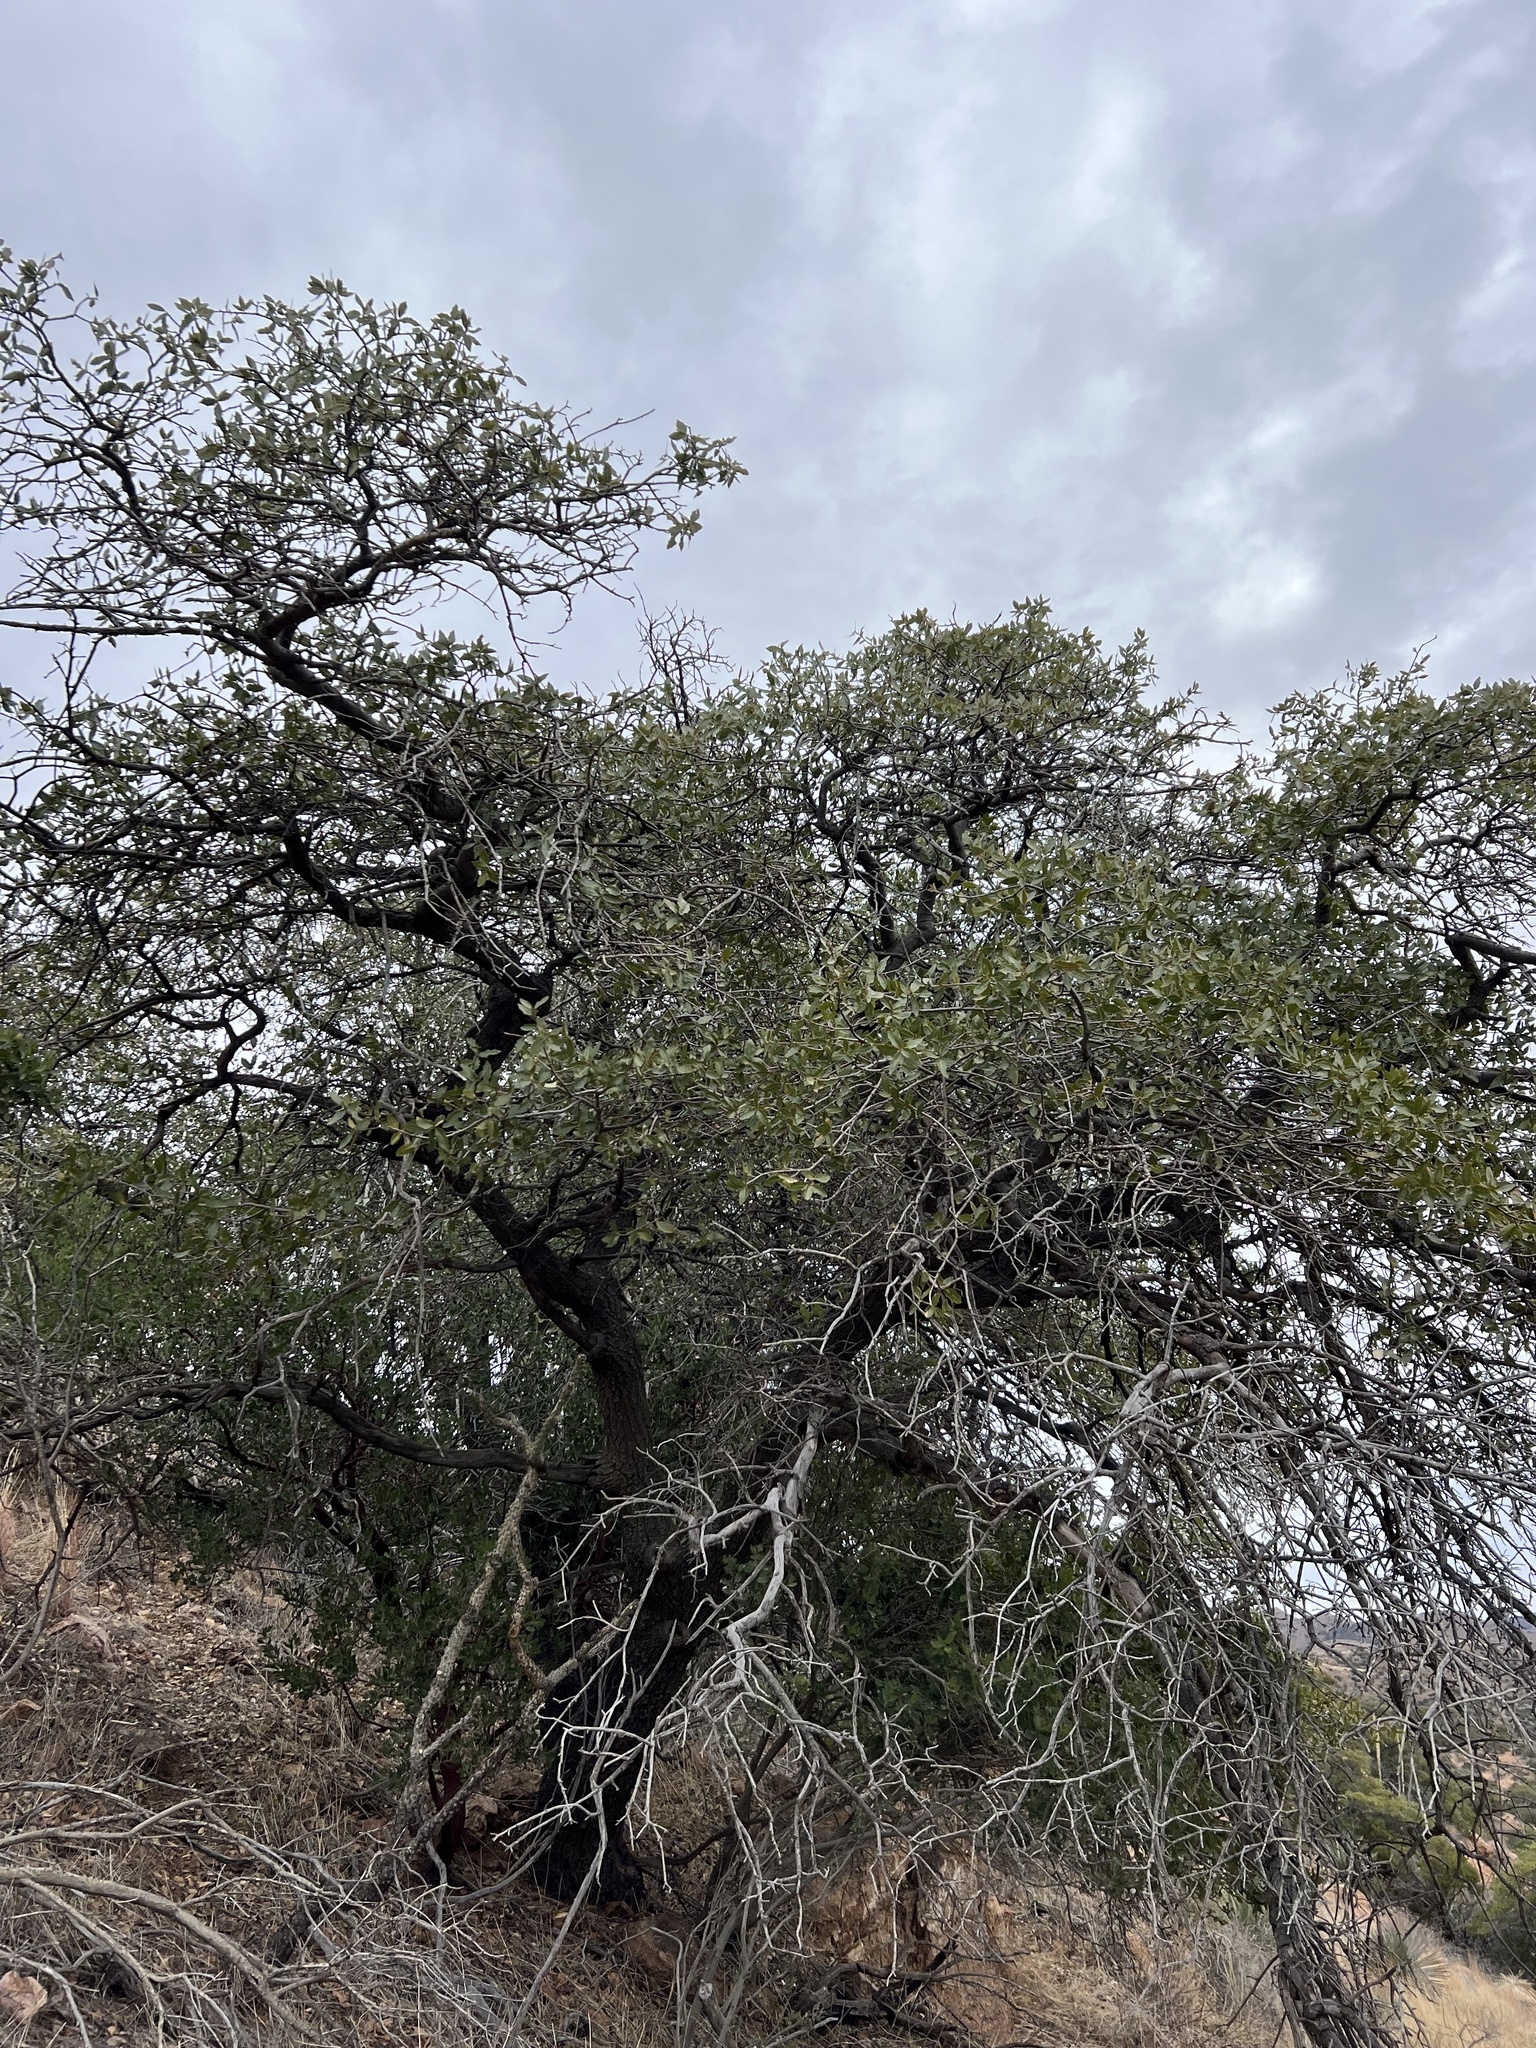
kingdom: Plantae
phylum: Tracheophyta
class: Magnoliopsida
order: Fagales
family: Fagaceae
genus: Quercus
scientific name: Quercus emoryi
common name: Emory oak
